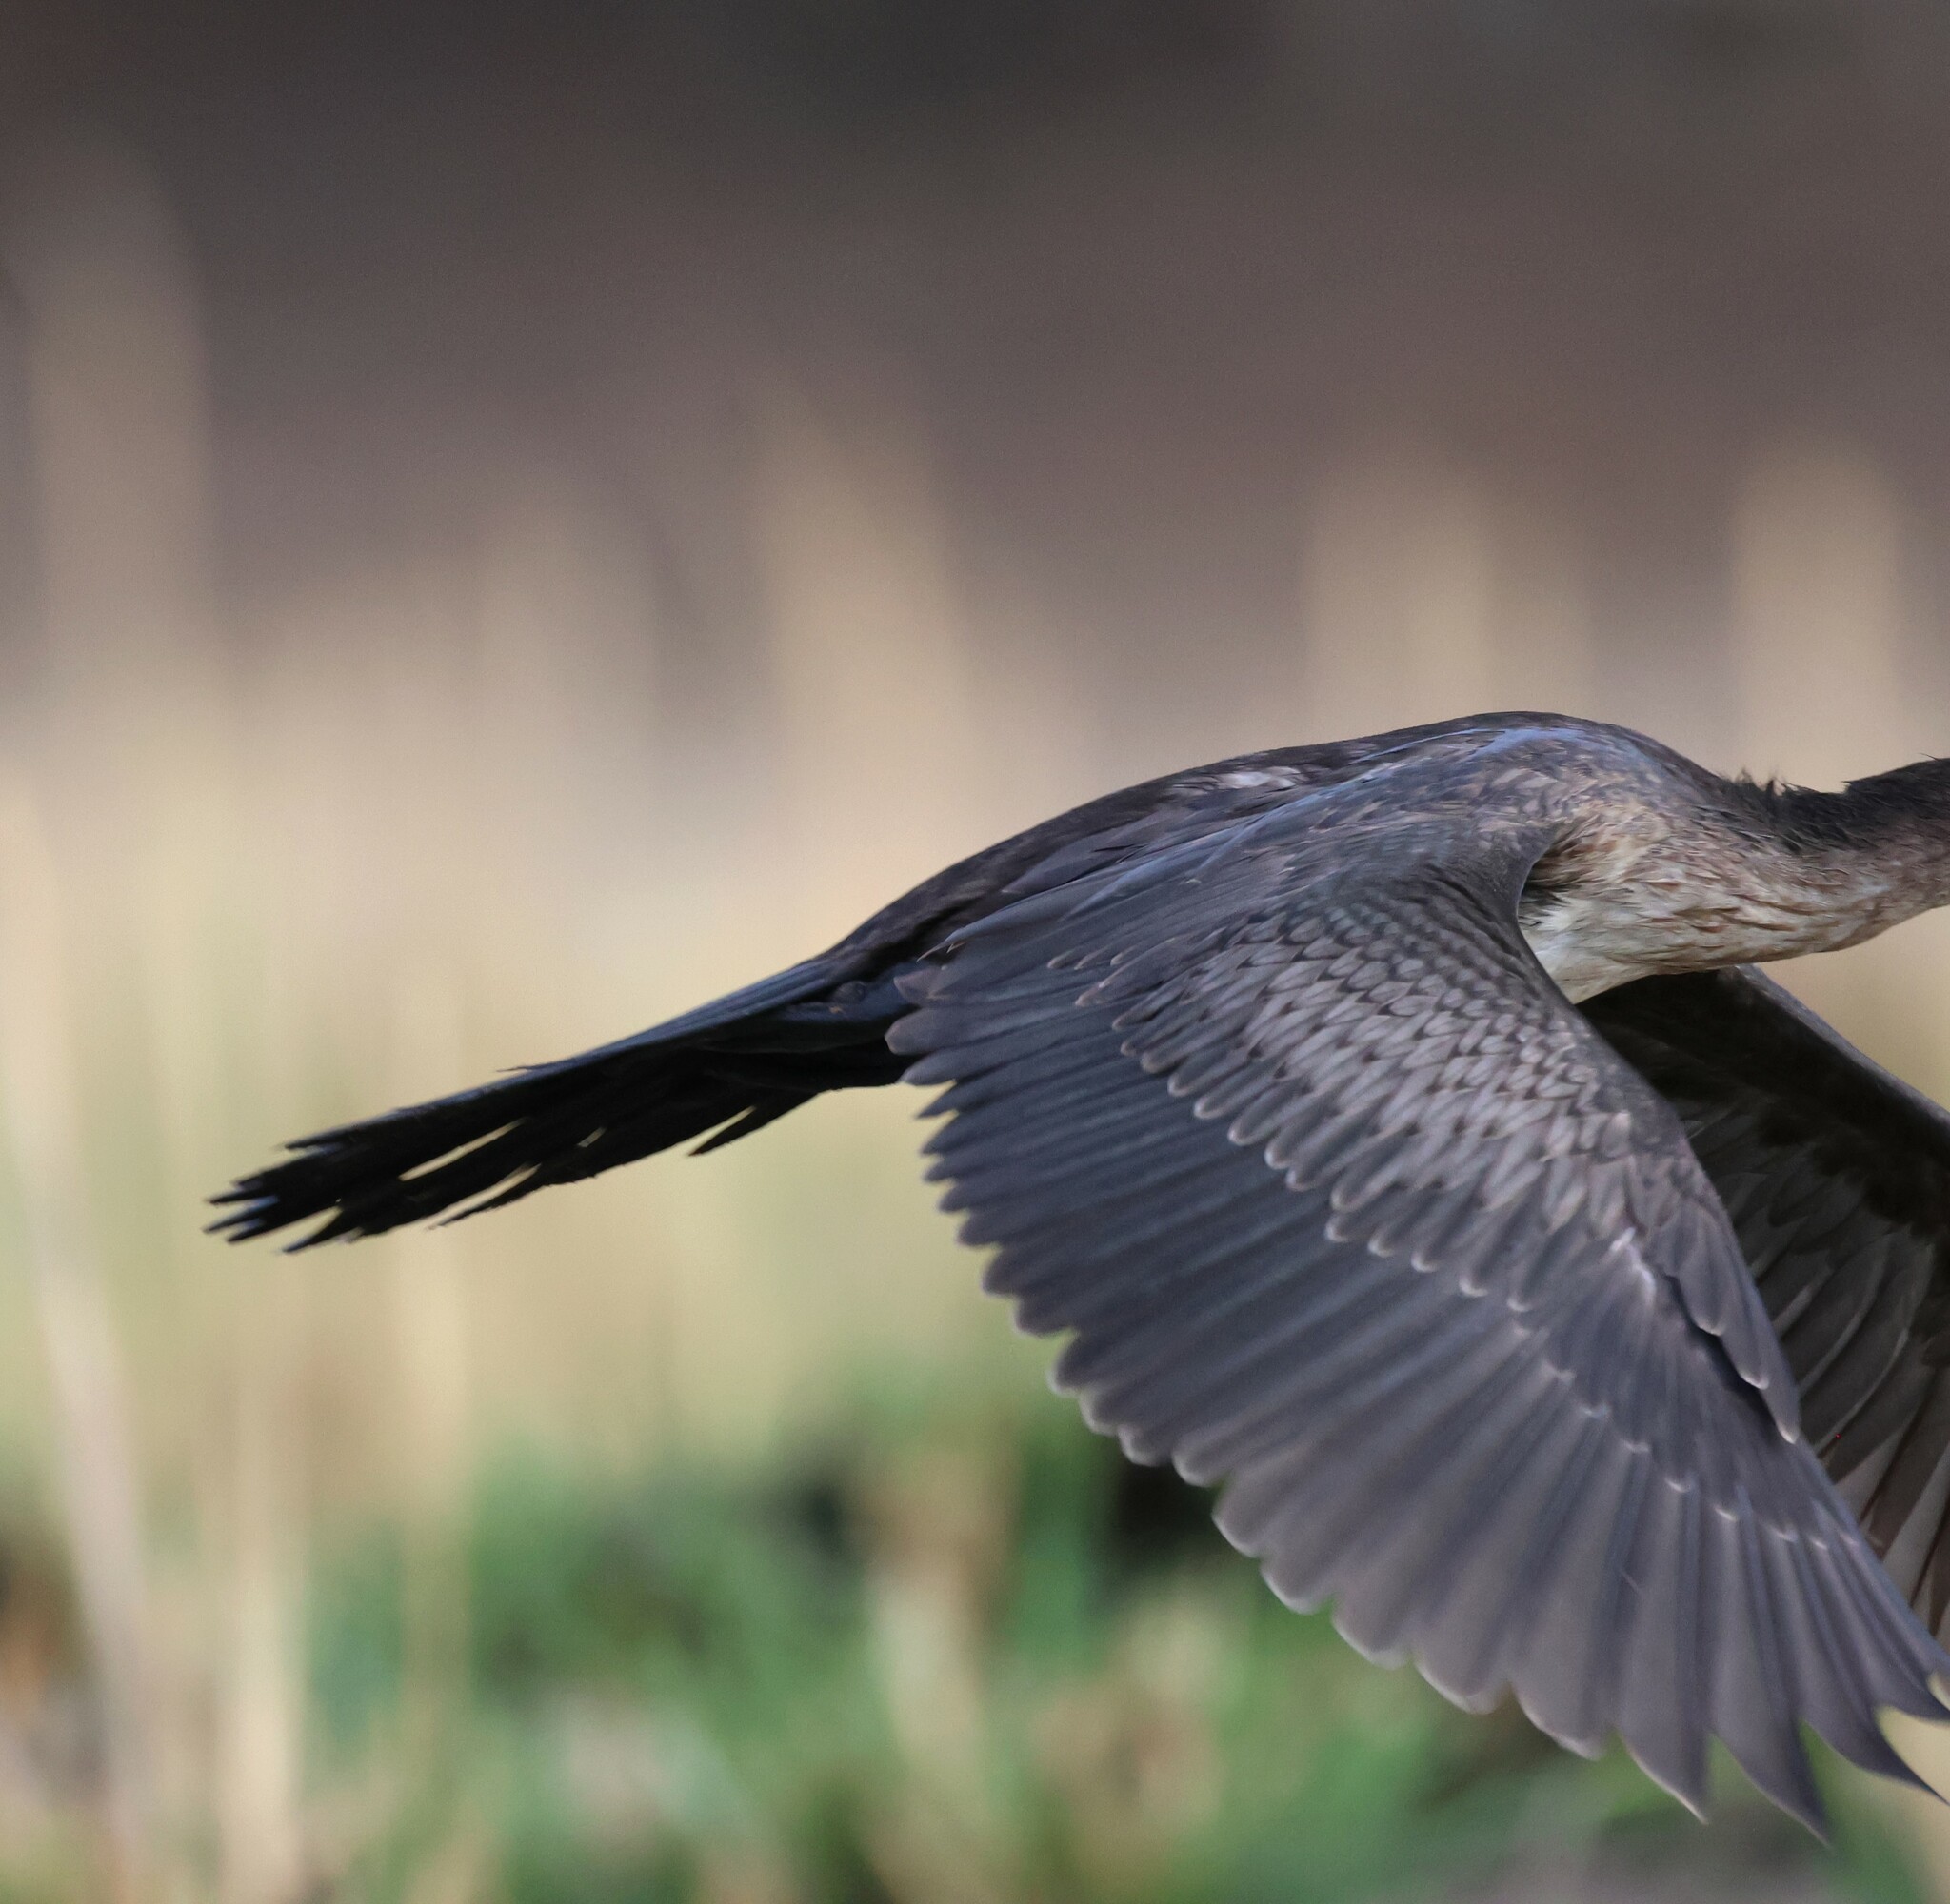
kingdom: Animalia
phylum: Chordata
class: Aves
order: Suliformes
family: Phalacrocoracidae
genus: Microcarbo
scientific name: Microcarbo africanus
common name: Long-tailed cormorant
